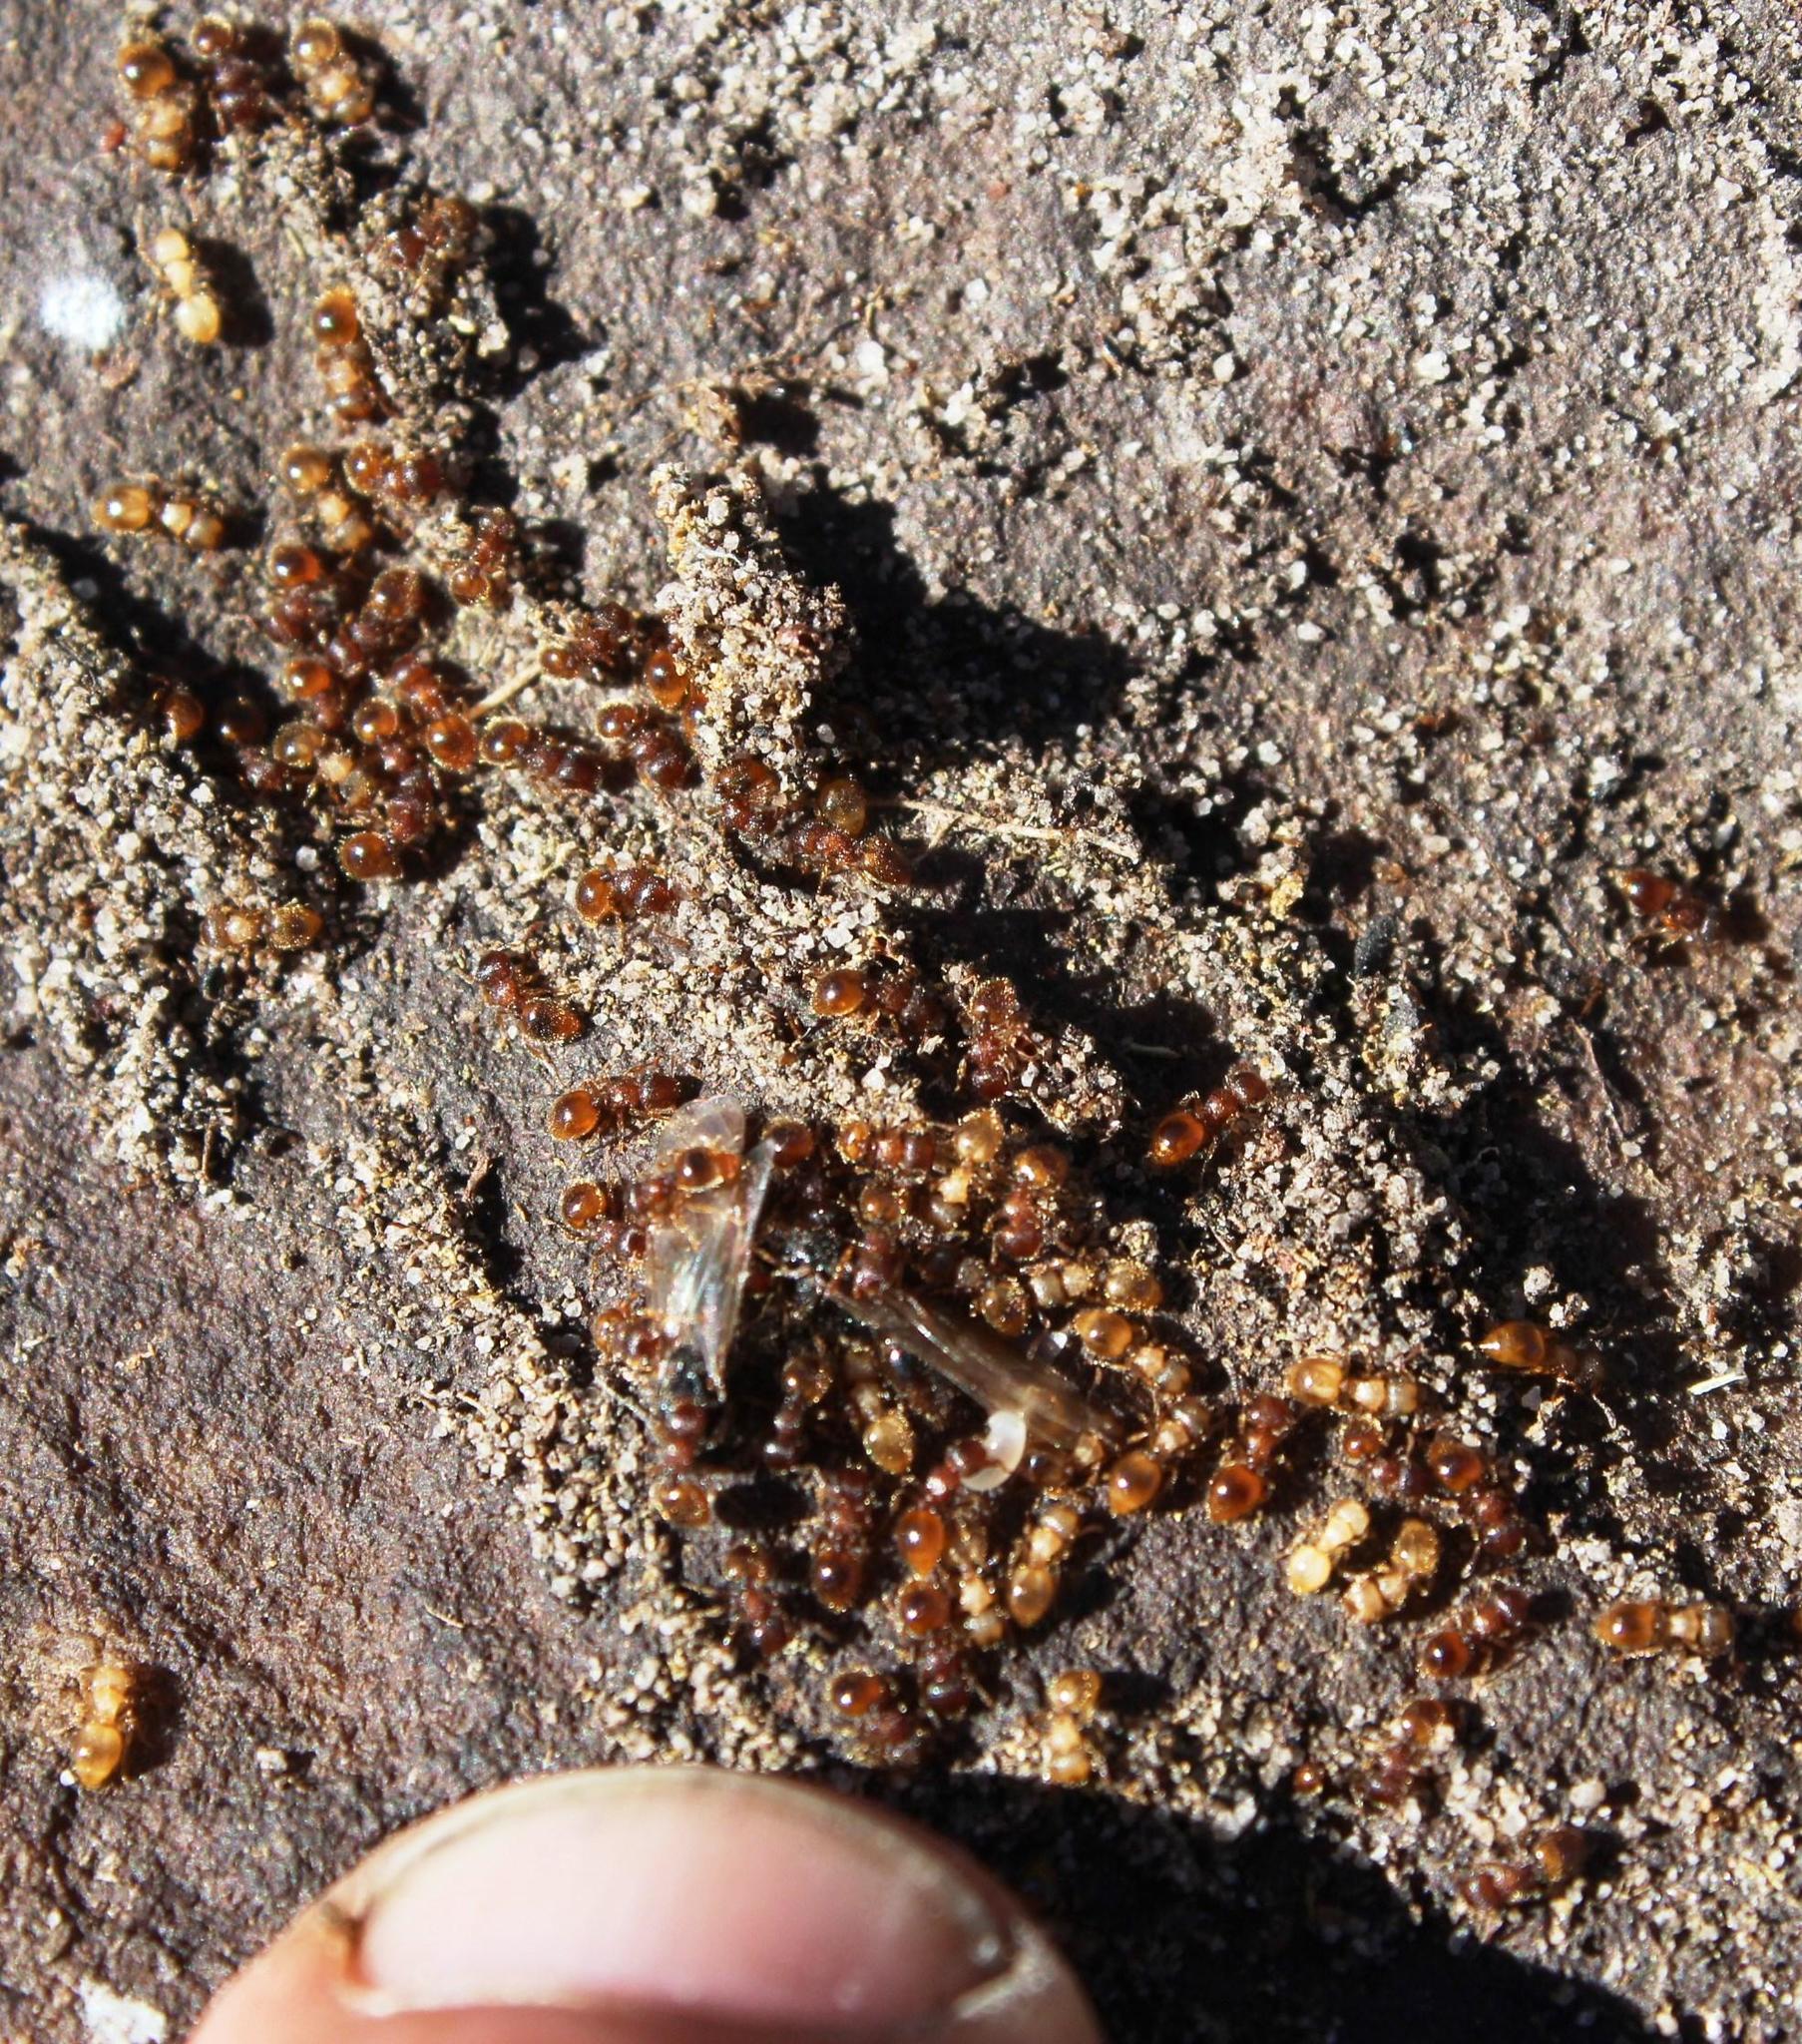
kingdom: Animalia
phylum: Arthropoda
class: Insecta
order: Hymenoptera
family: Formicidae
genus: Crematogaster
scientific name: Crematogaster natalensis
